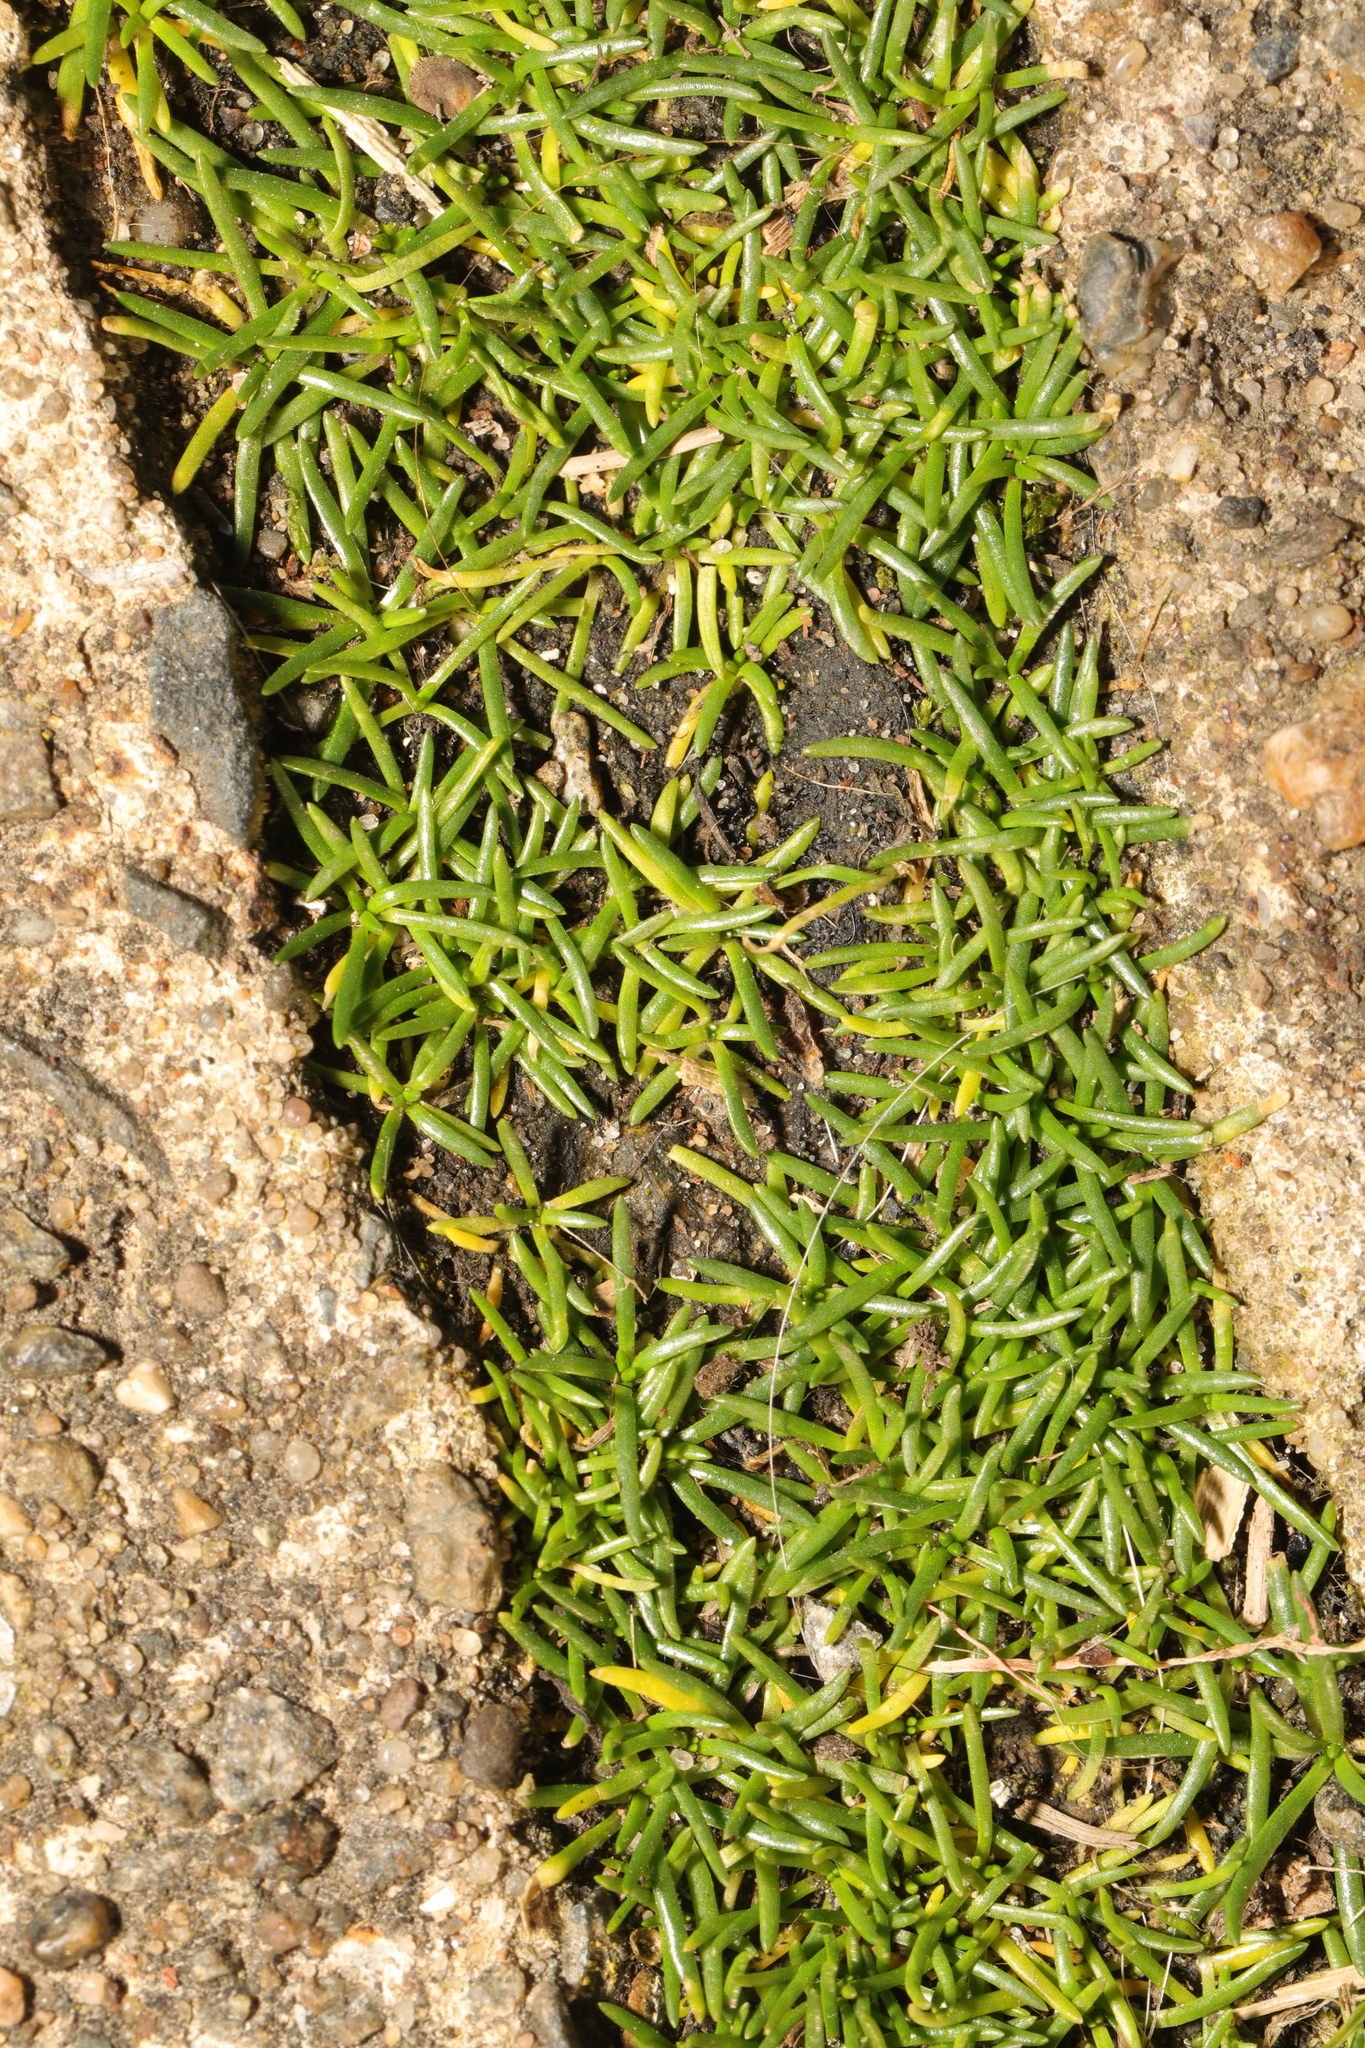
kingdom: Plantae
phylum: Tracheophyta
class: Magnoliopsida
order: Caryophyllales
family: Caryophyllaceae
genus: Sagina
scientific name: Sagina procumbens
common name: Procumbent pearlwort
